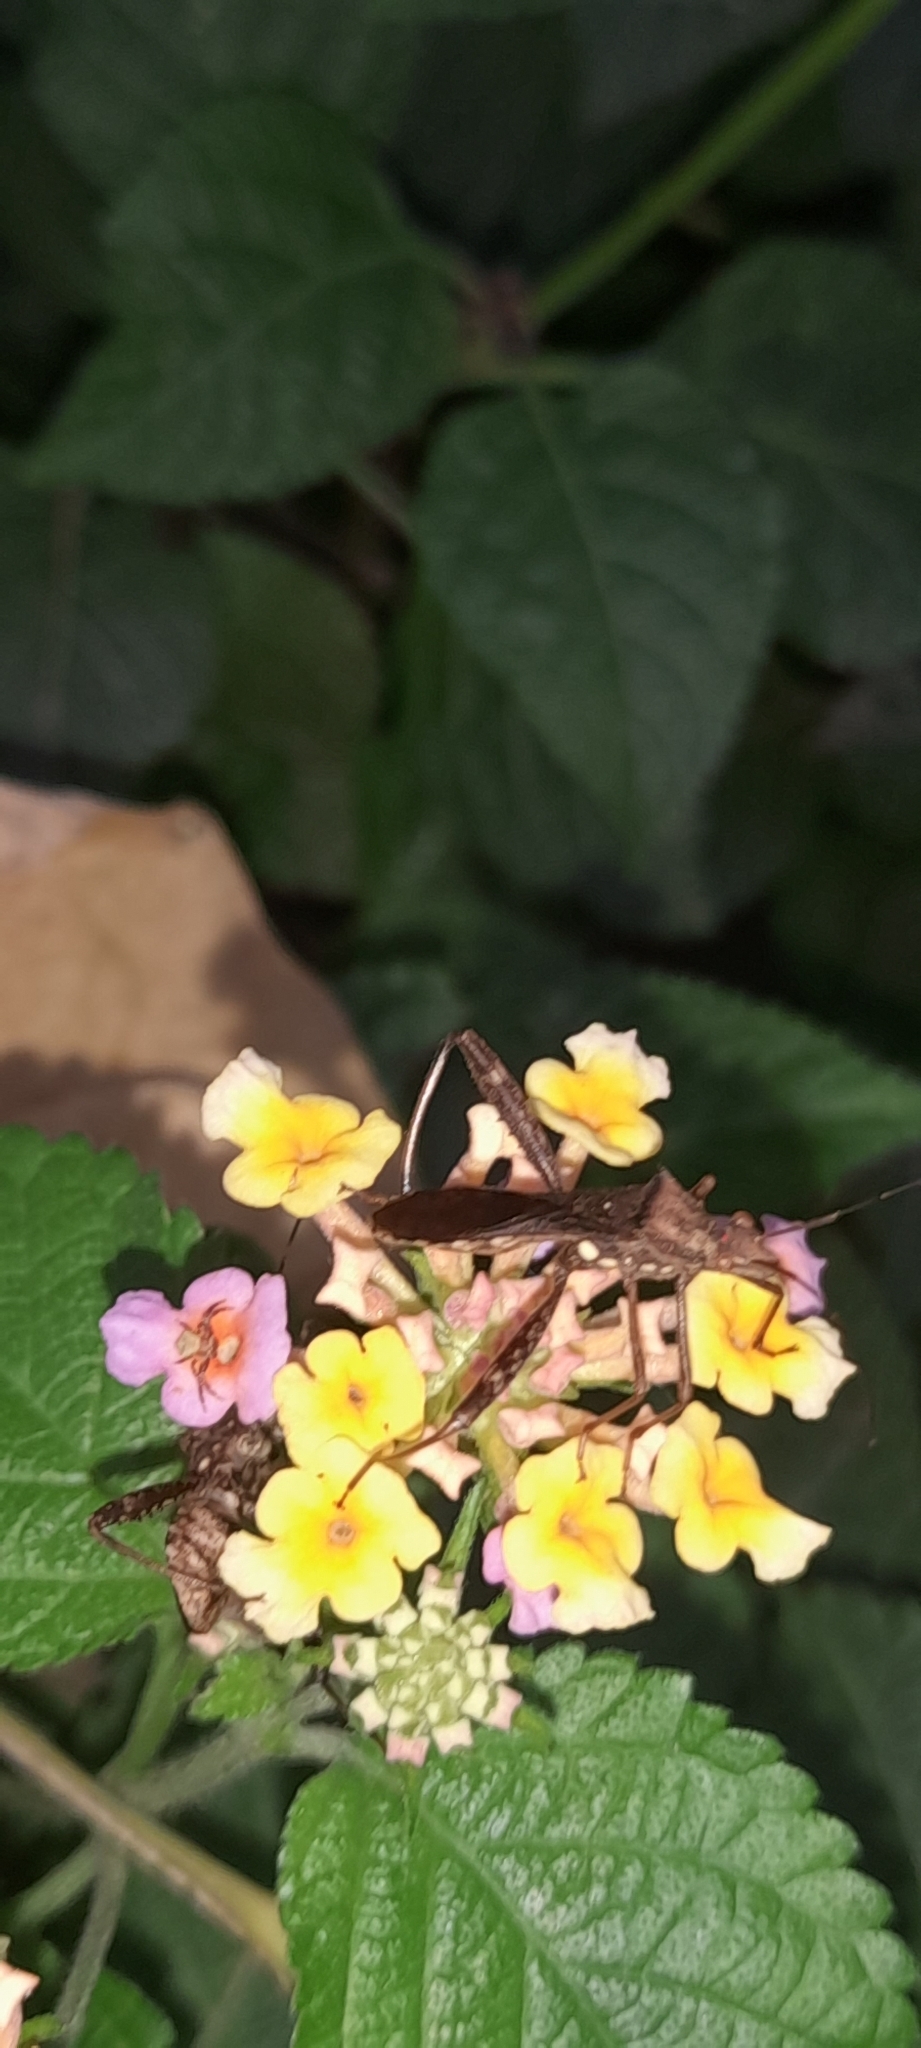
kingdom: Animalia
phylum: Arthropoda
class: Insecta
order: Hemiptera
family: Alydidae
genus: Riptortus
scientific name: Riptortus pedestris
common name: Bean bug
